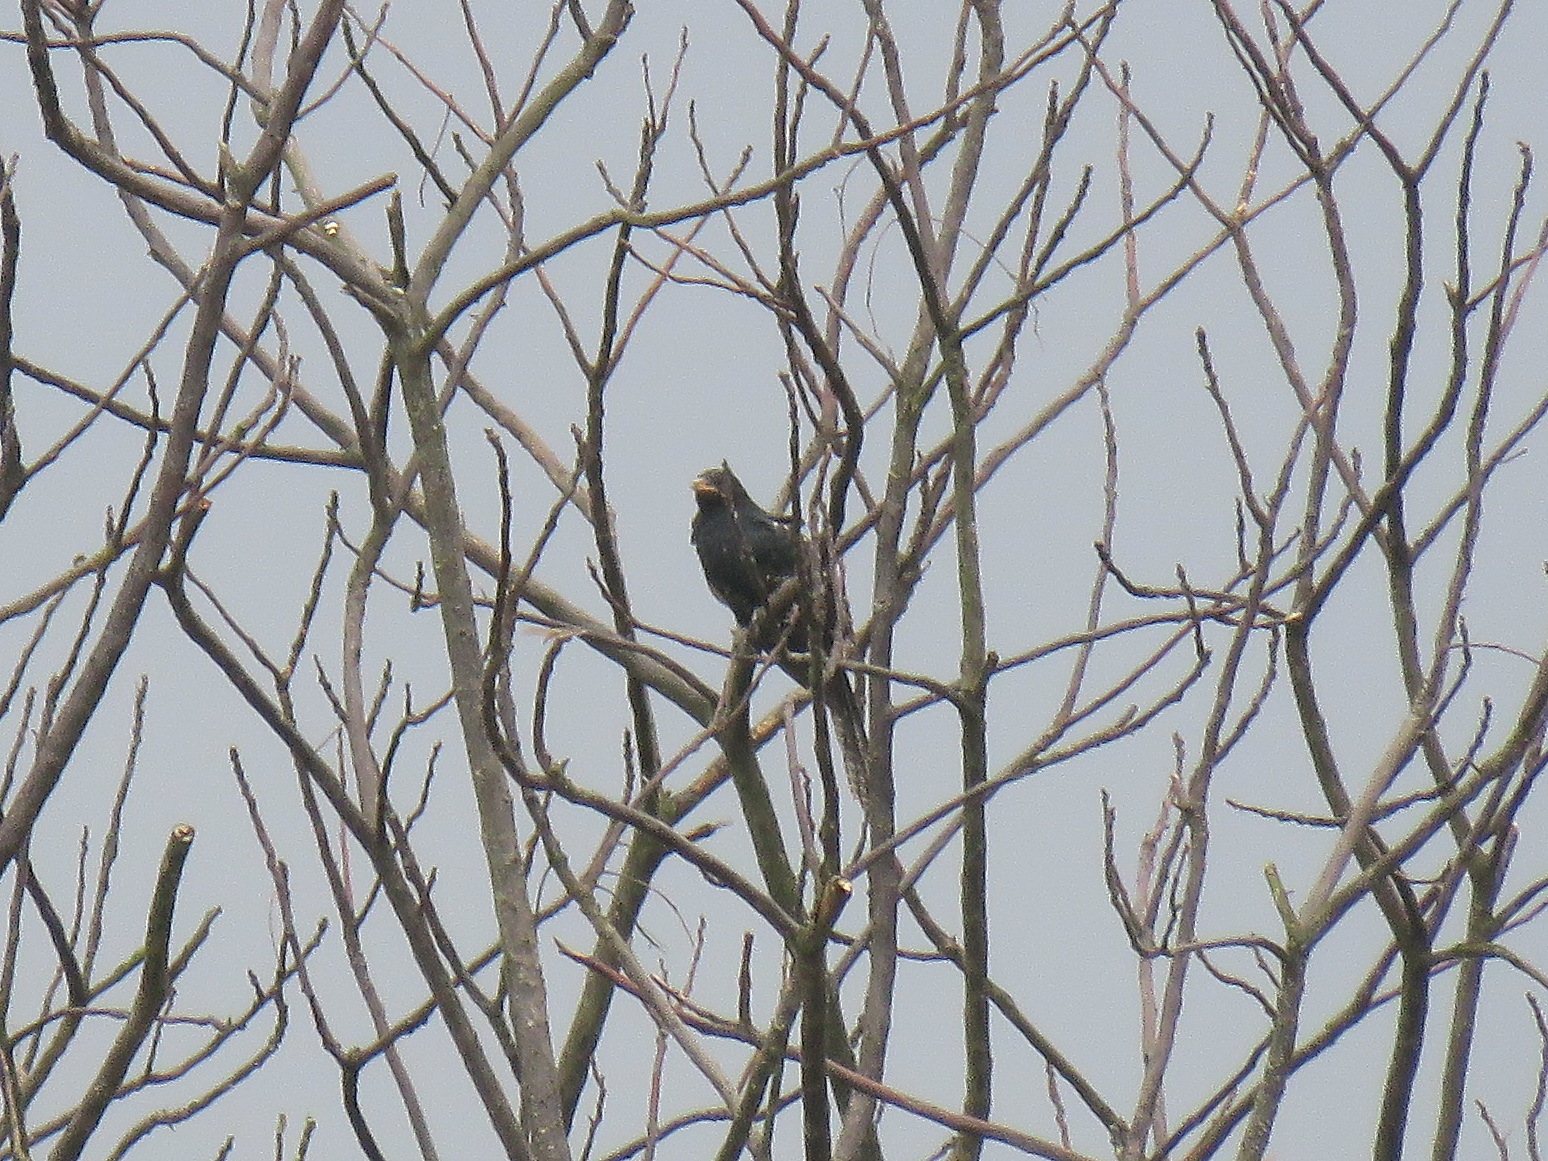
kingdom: Animalia
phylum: Chordata
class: Aves
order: Cuculiformes
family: Cuculidae
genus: Eudynamys
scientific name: Eudynamys scolopaceus
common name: Asian koel
